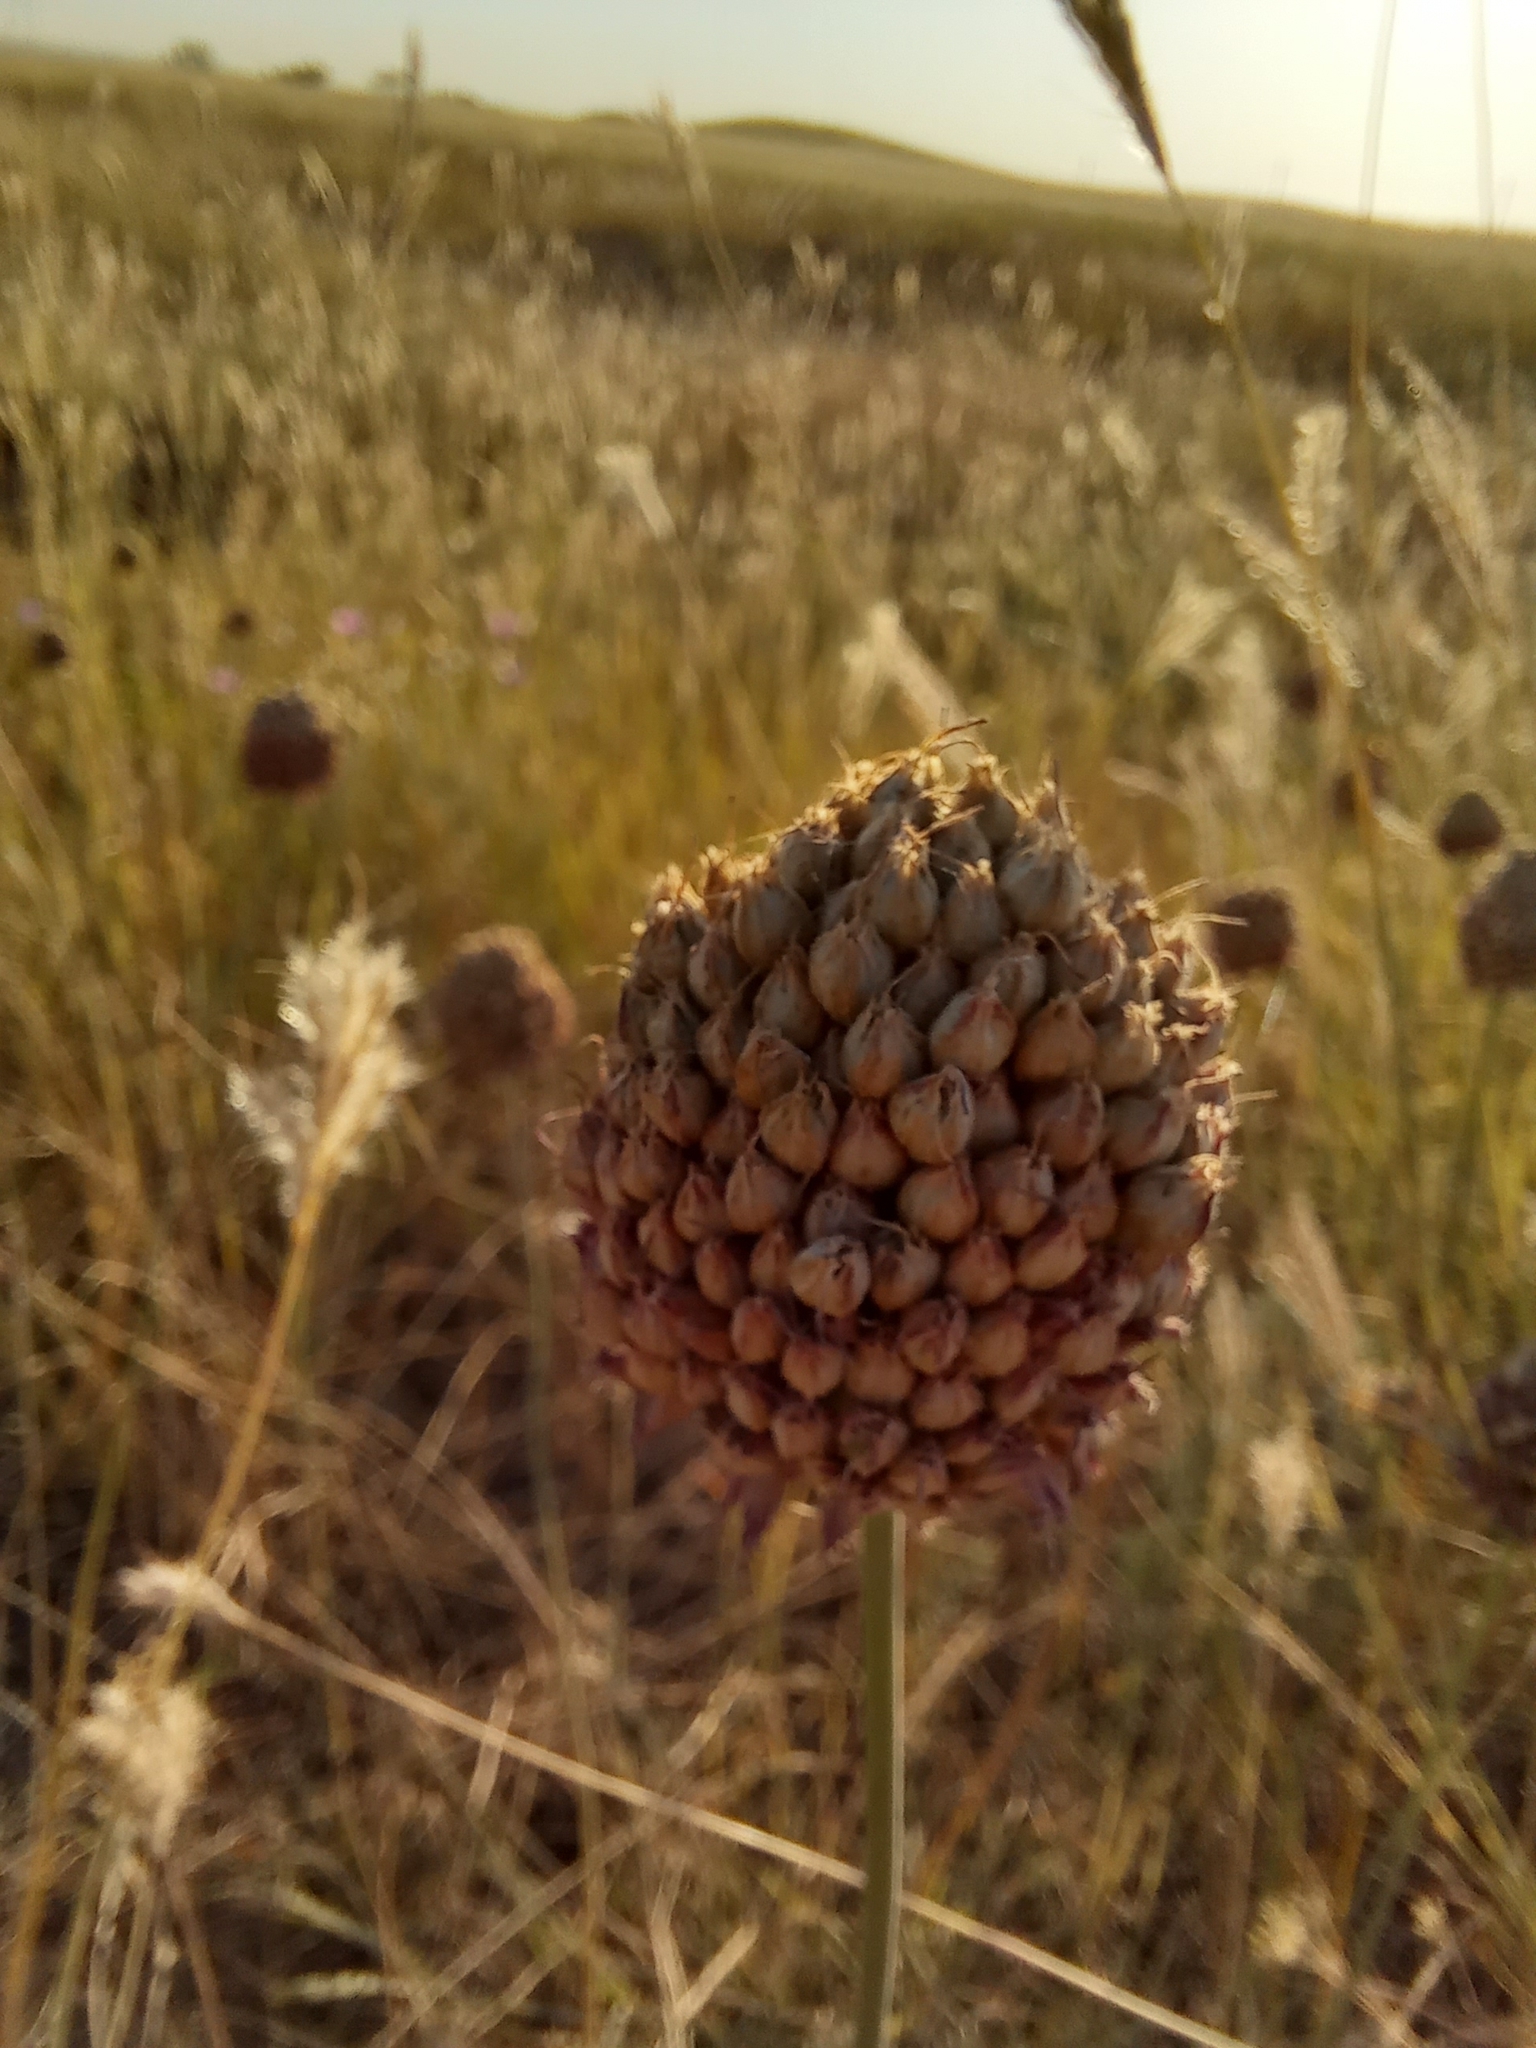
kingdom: Plantae
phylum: Tracheophyta
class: Liliopsida
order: Asparagales
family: Amaryllidaceae
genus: Allium
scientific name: Allium sphaerocephalon
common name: Round-headed leek
